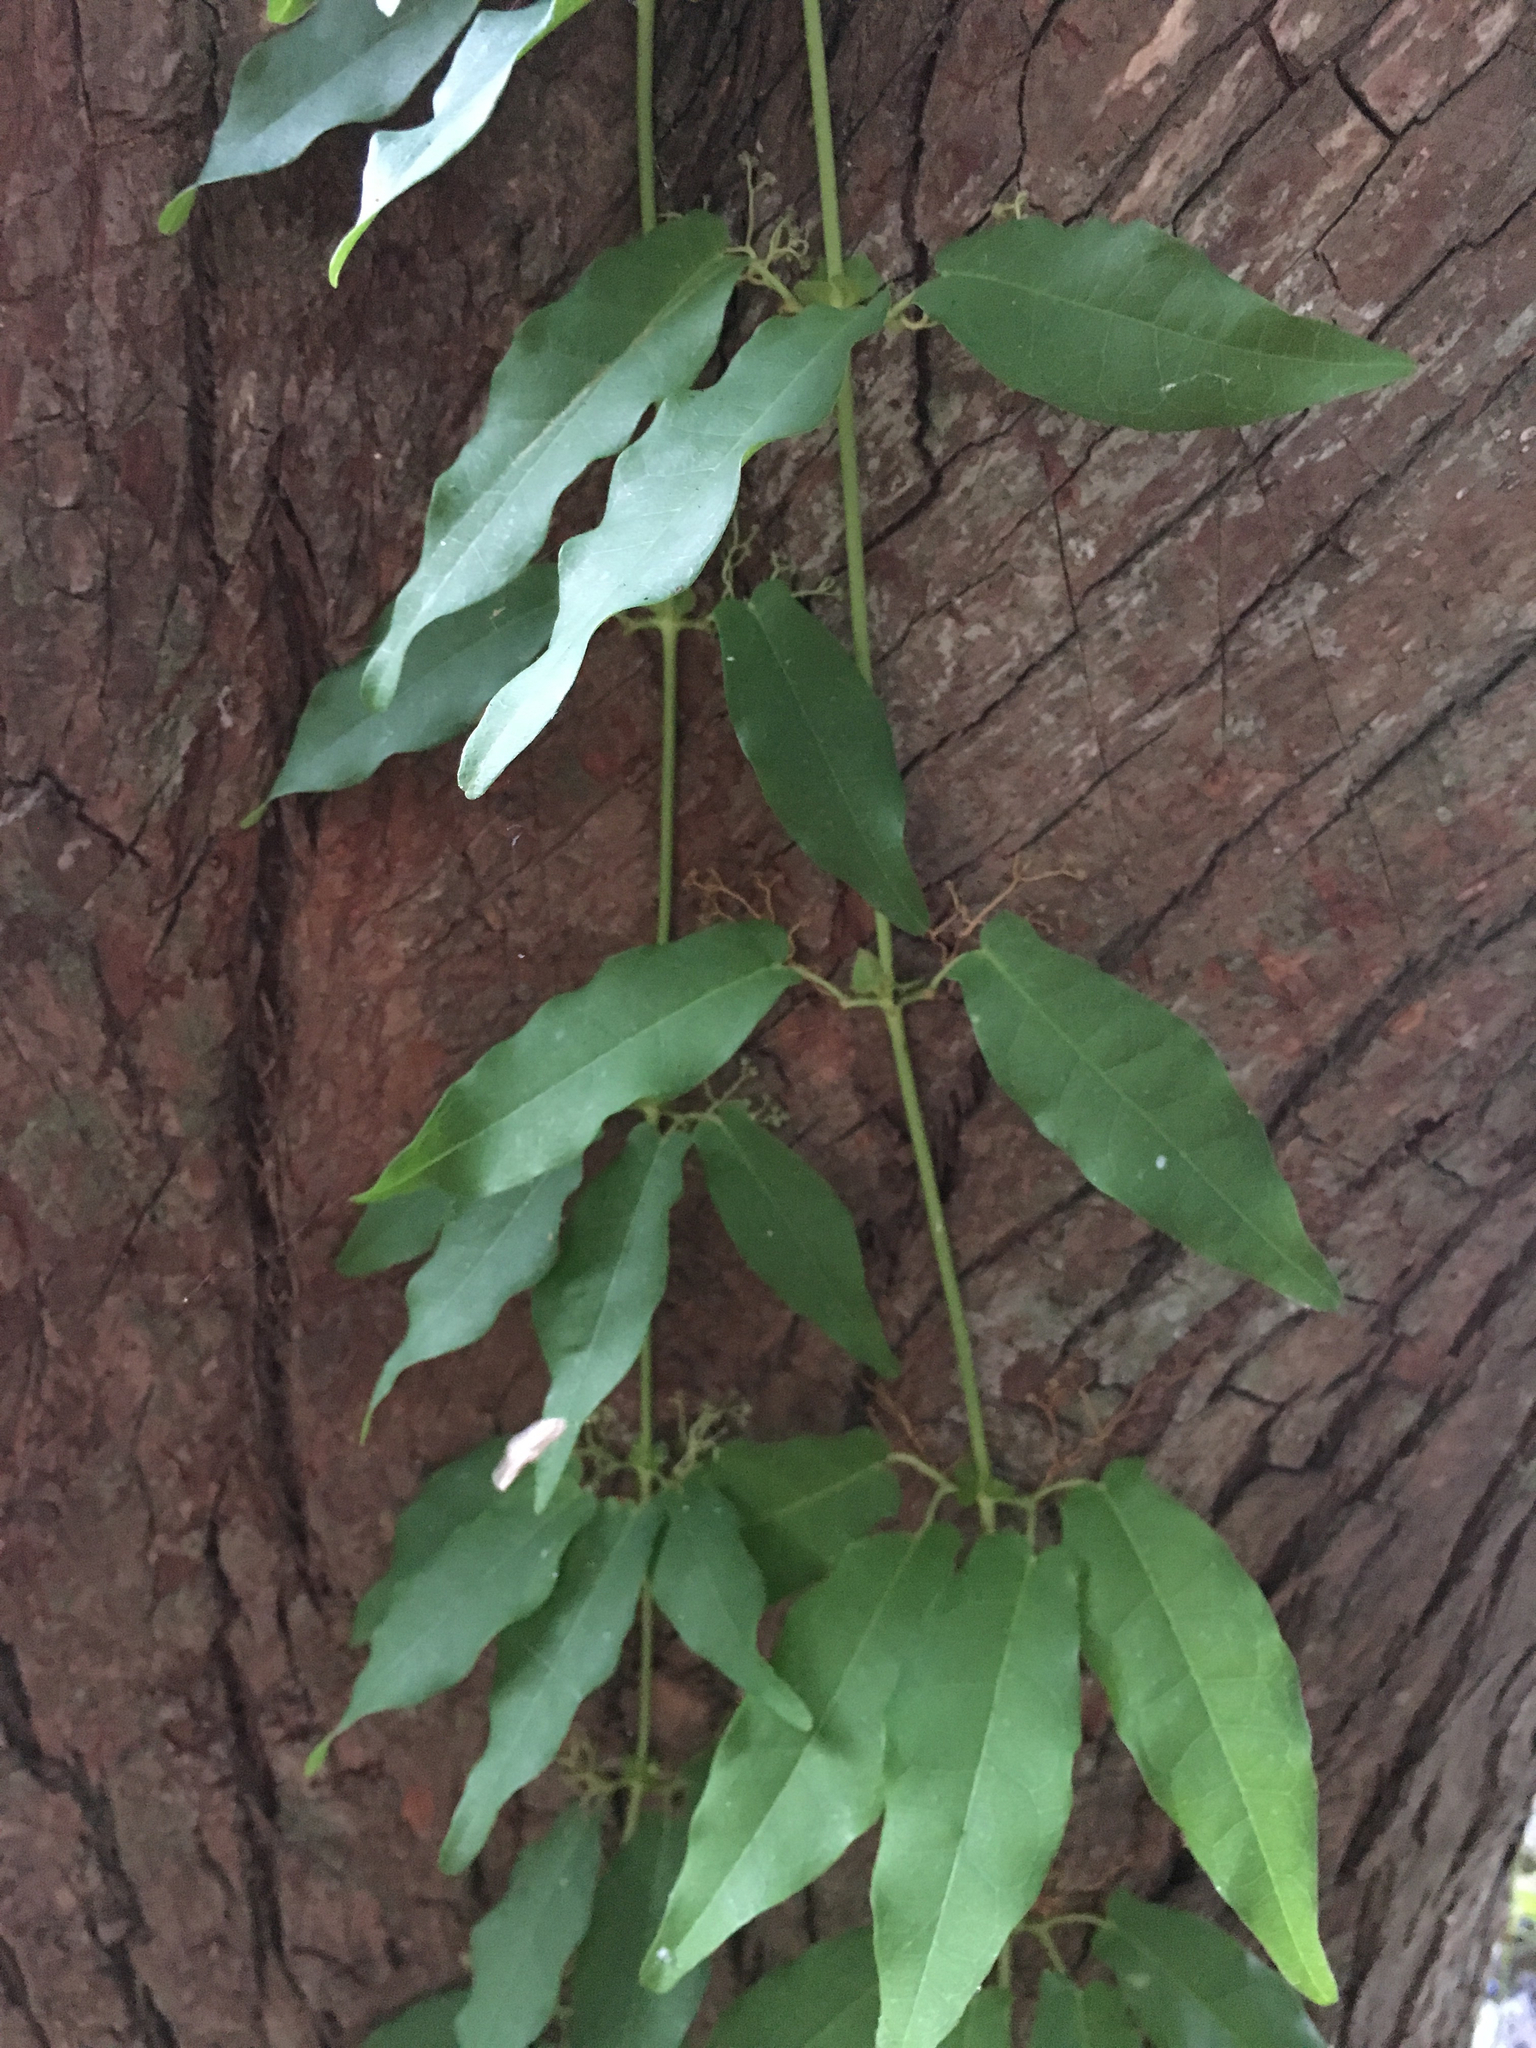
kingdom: Plantae
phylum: Tracheophyta
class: Magnoliopsida
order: Lamiales
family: Bignoniaceae
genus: Bignonia
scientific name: Bignonia capreolata
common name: Crossvine
